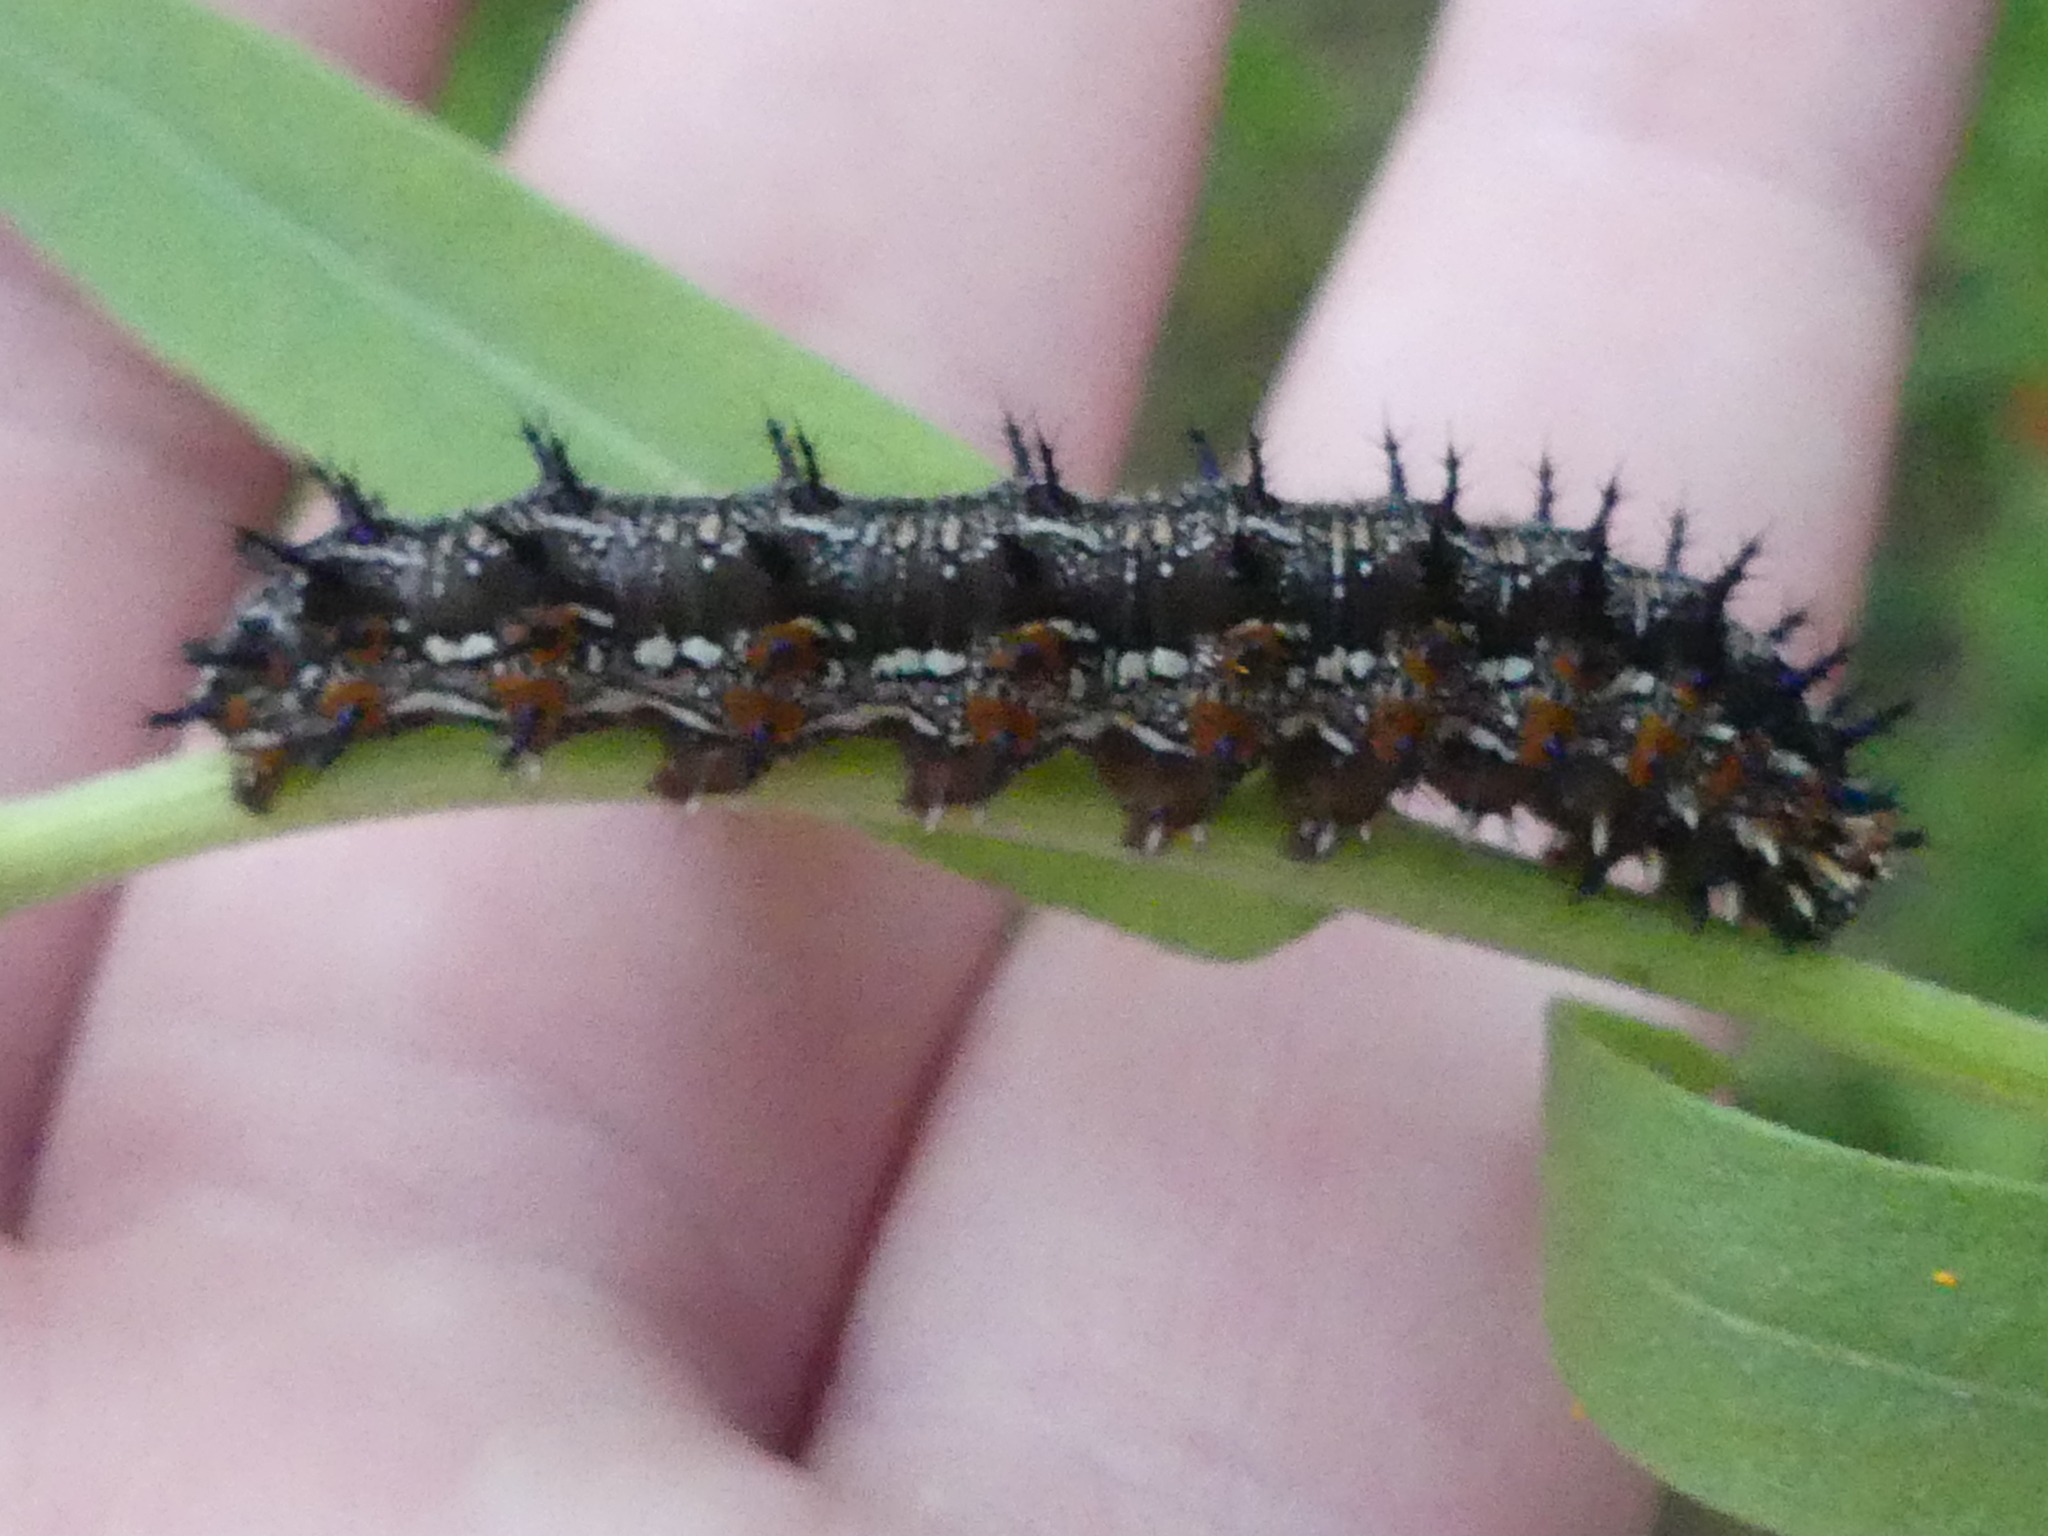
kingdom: Animalia
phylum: Arthropoda
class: Insecta
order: Lepidoptera
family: Nymphalidae
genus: Junonia
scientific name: Junonia coenia
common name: Common buckeye
